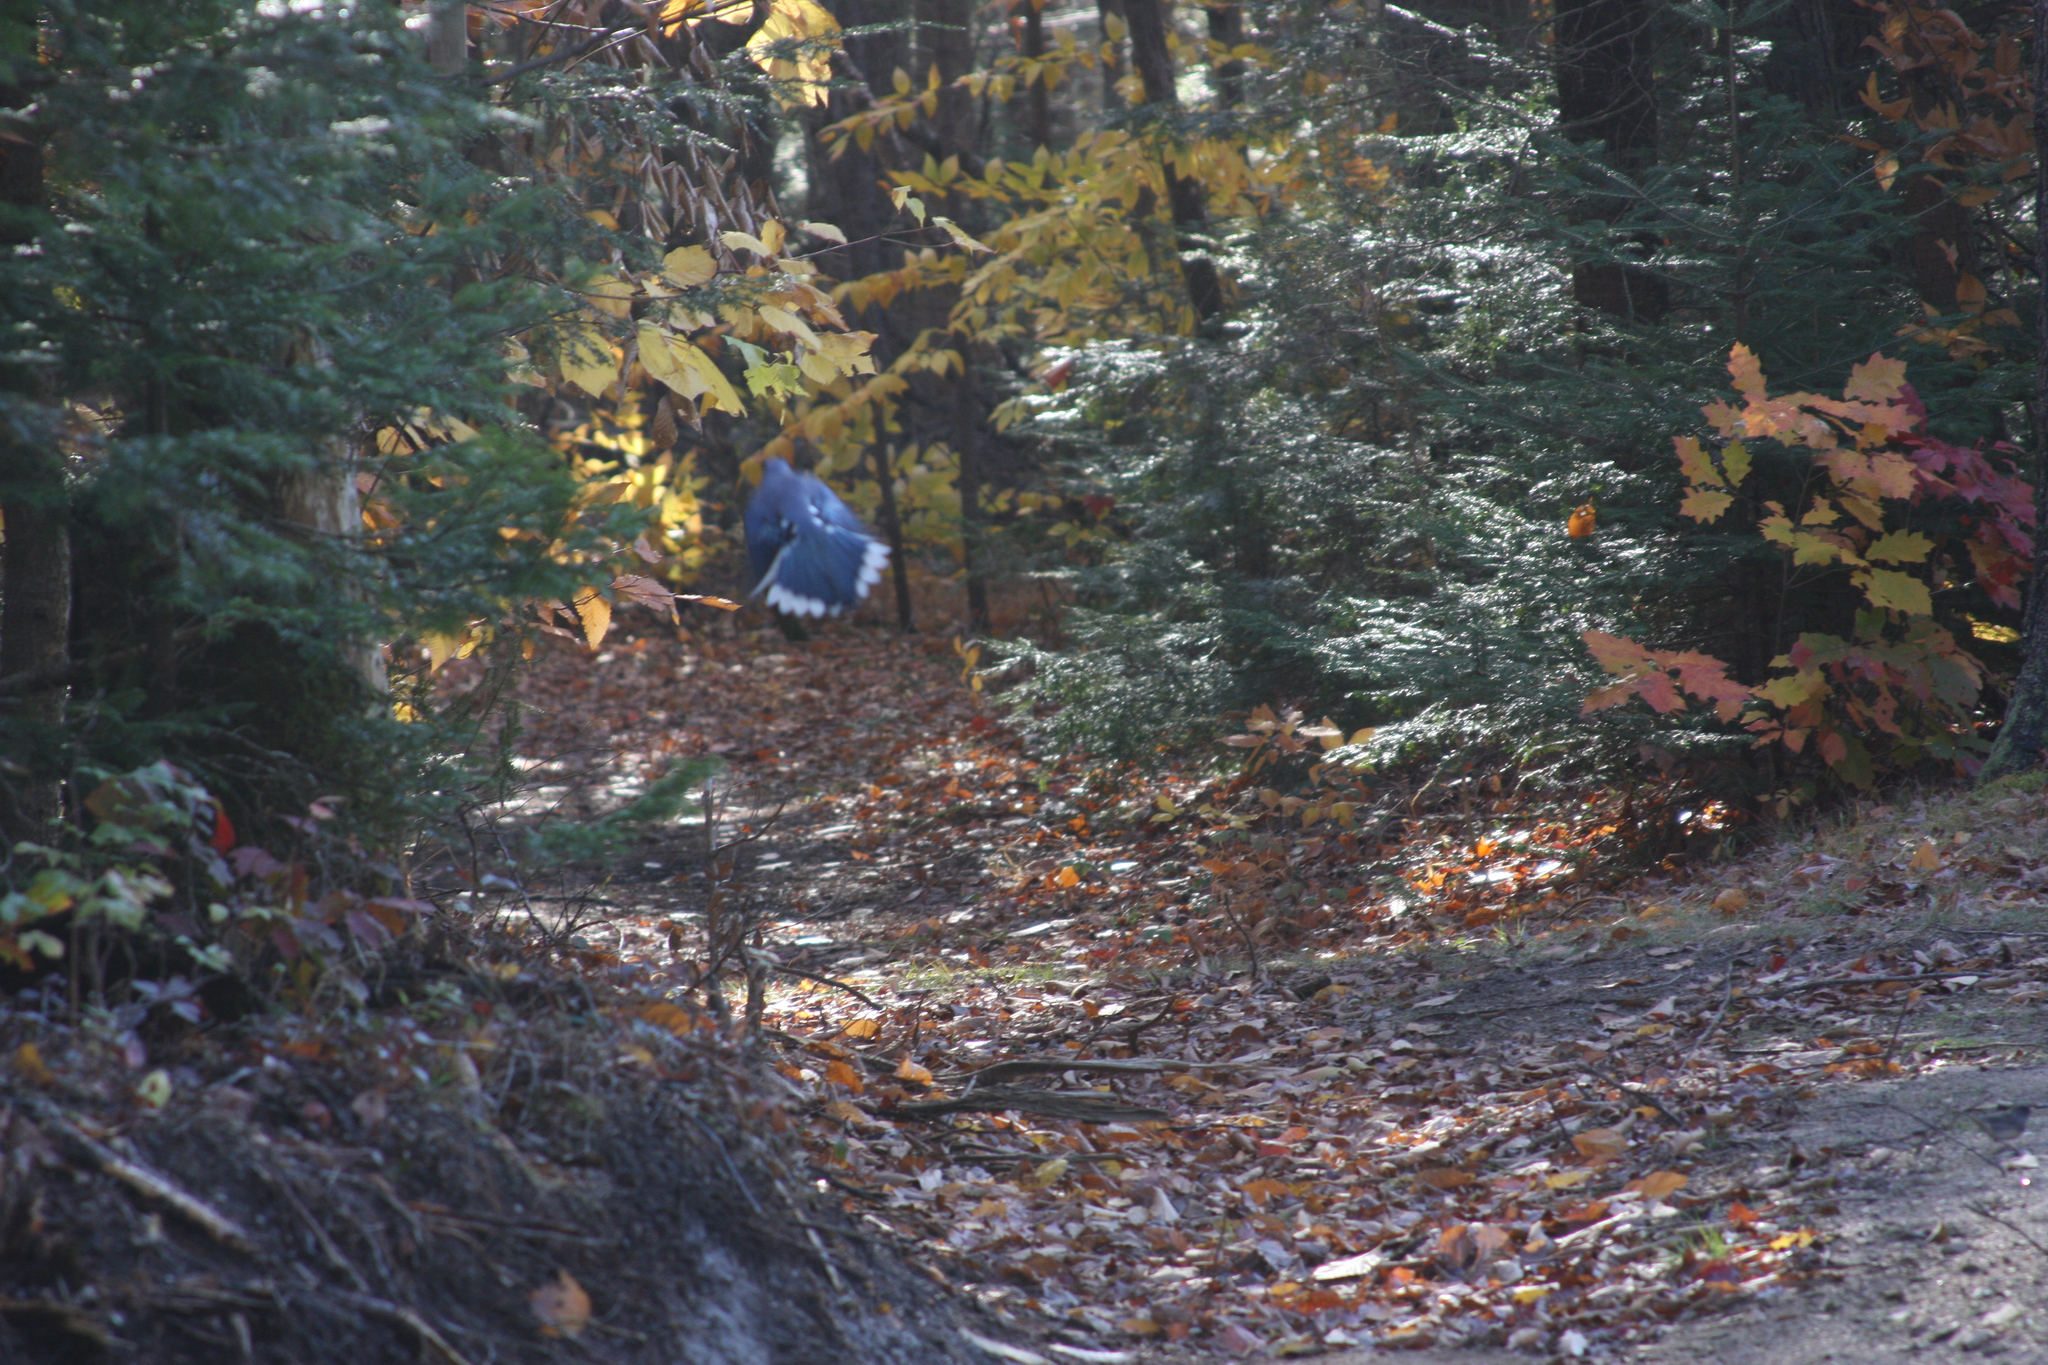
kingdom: Animalia
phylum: Chordata
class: Aves
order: Passeriformes
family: Corvidae
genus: Cyanocitta
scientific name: Cyanocitta cristata
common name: Blue jay
